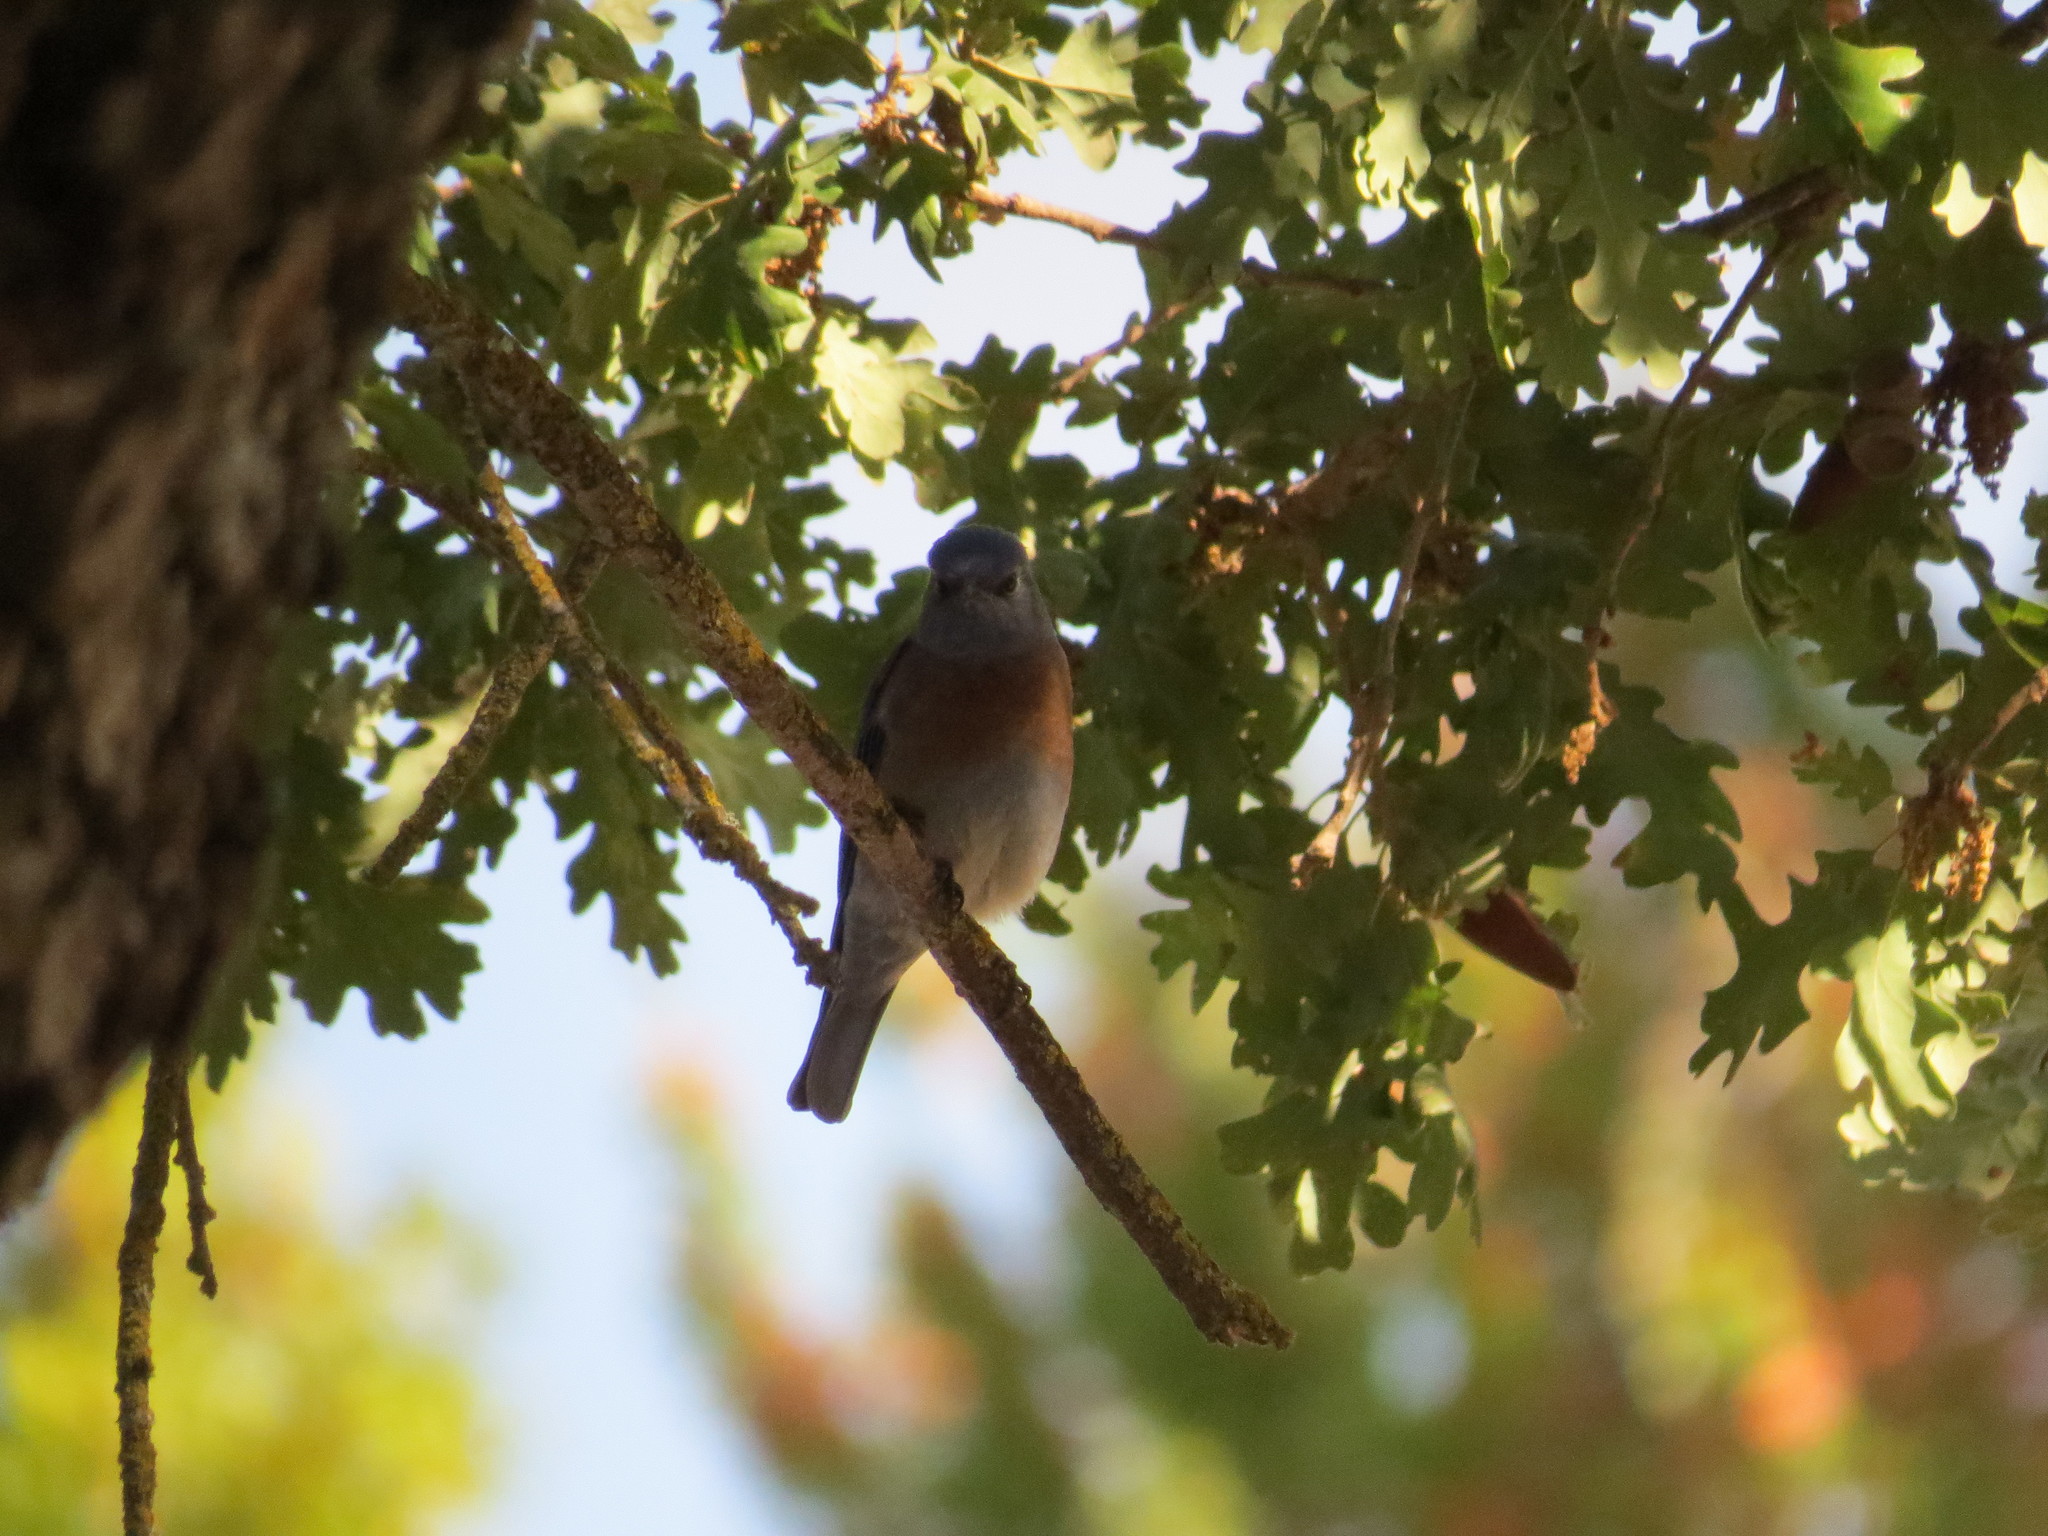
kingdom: Animalia
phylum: Chordata
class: Aves
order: Passeriformes
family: Turdidae
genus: Sialia
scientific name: Sialia mexicana
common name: Western bluebird
